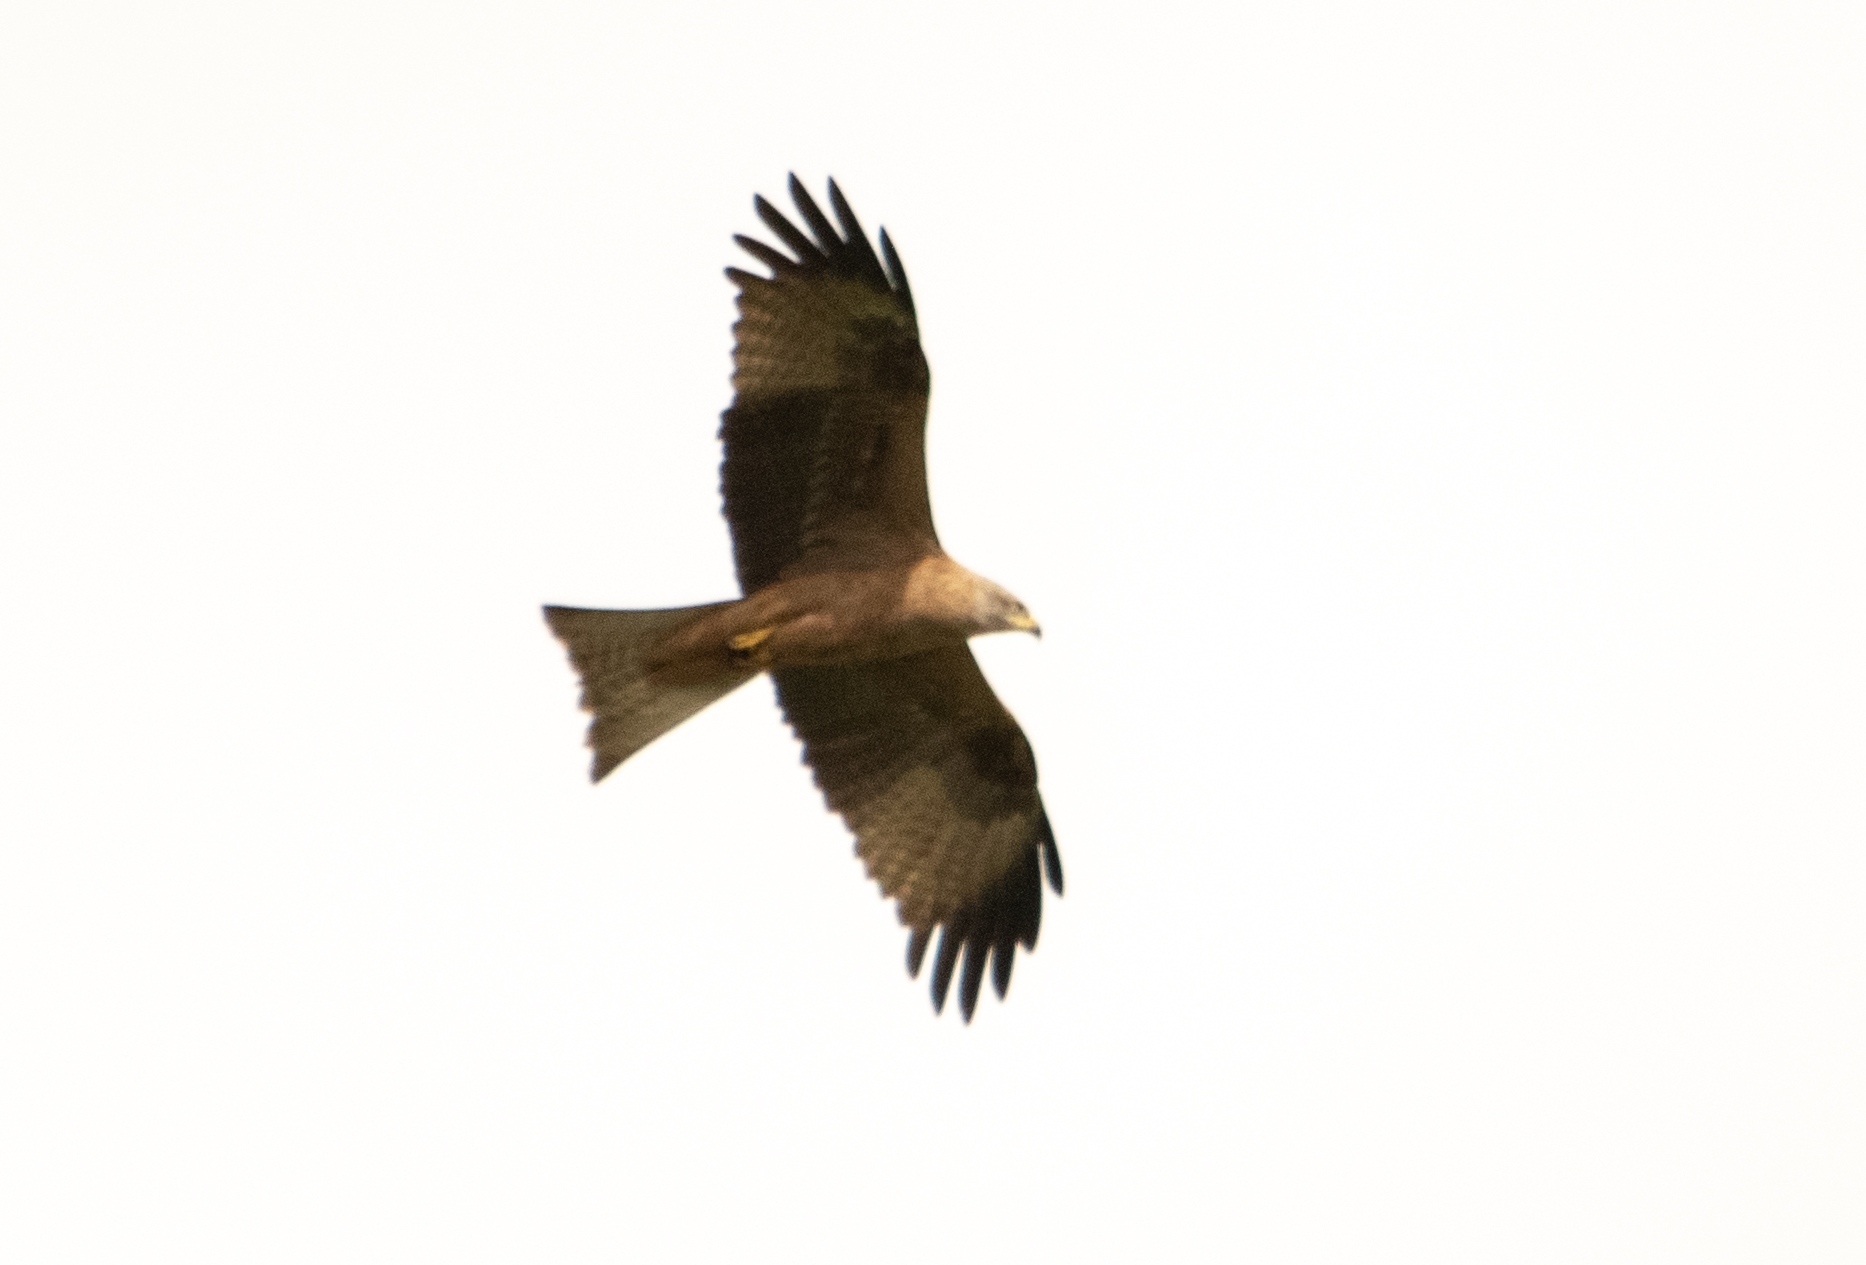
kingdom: Animalia
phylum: Chordata
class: Aves
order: Accipitriformes
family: Accipitridae
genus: Milvus
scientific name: Milvus migrans
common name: Black kite
